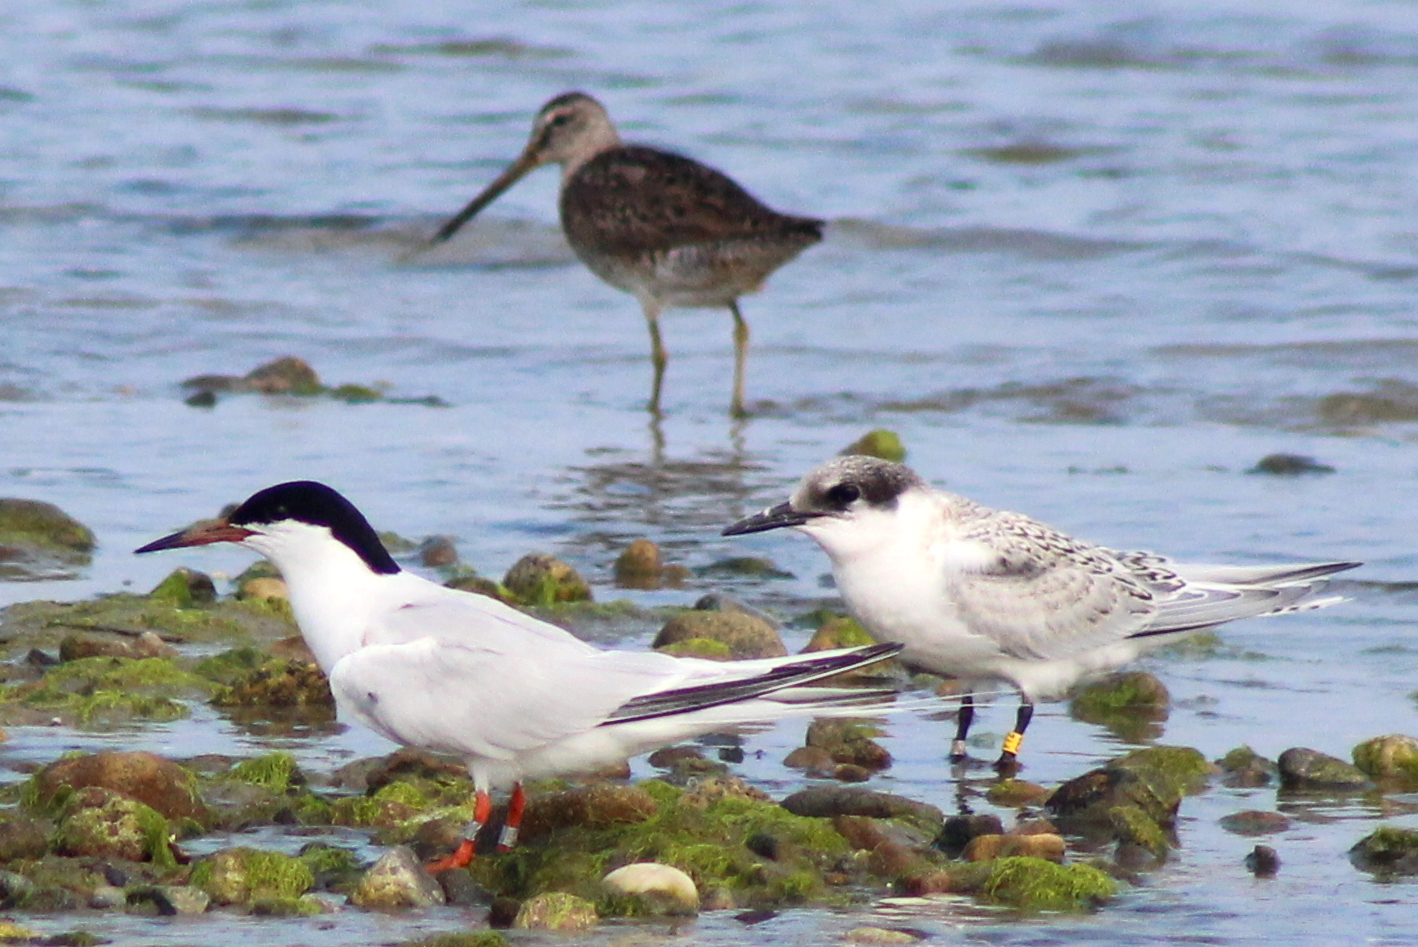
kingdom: Animalia
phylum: Chordata
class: Aves
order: Charadriiformes
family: Laridae
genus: Sterna
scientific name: Sterna dougallii
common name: Roseate tern
